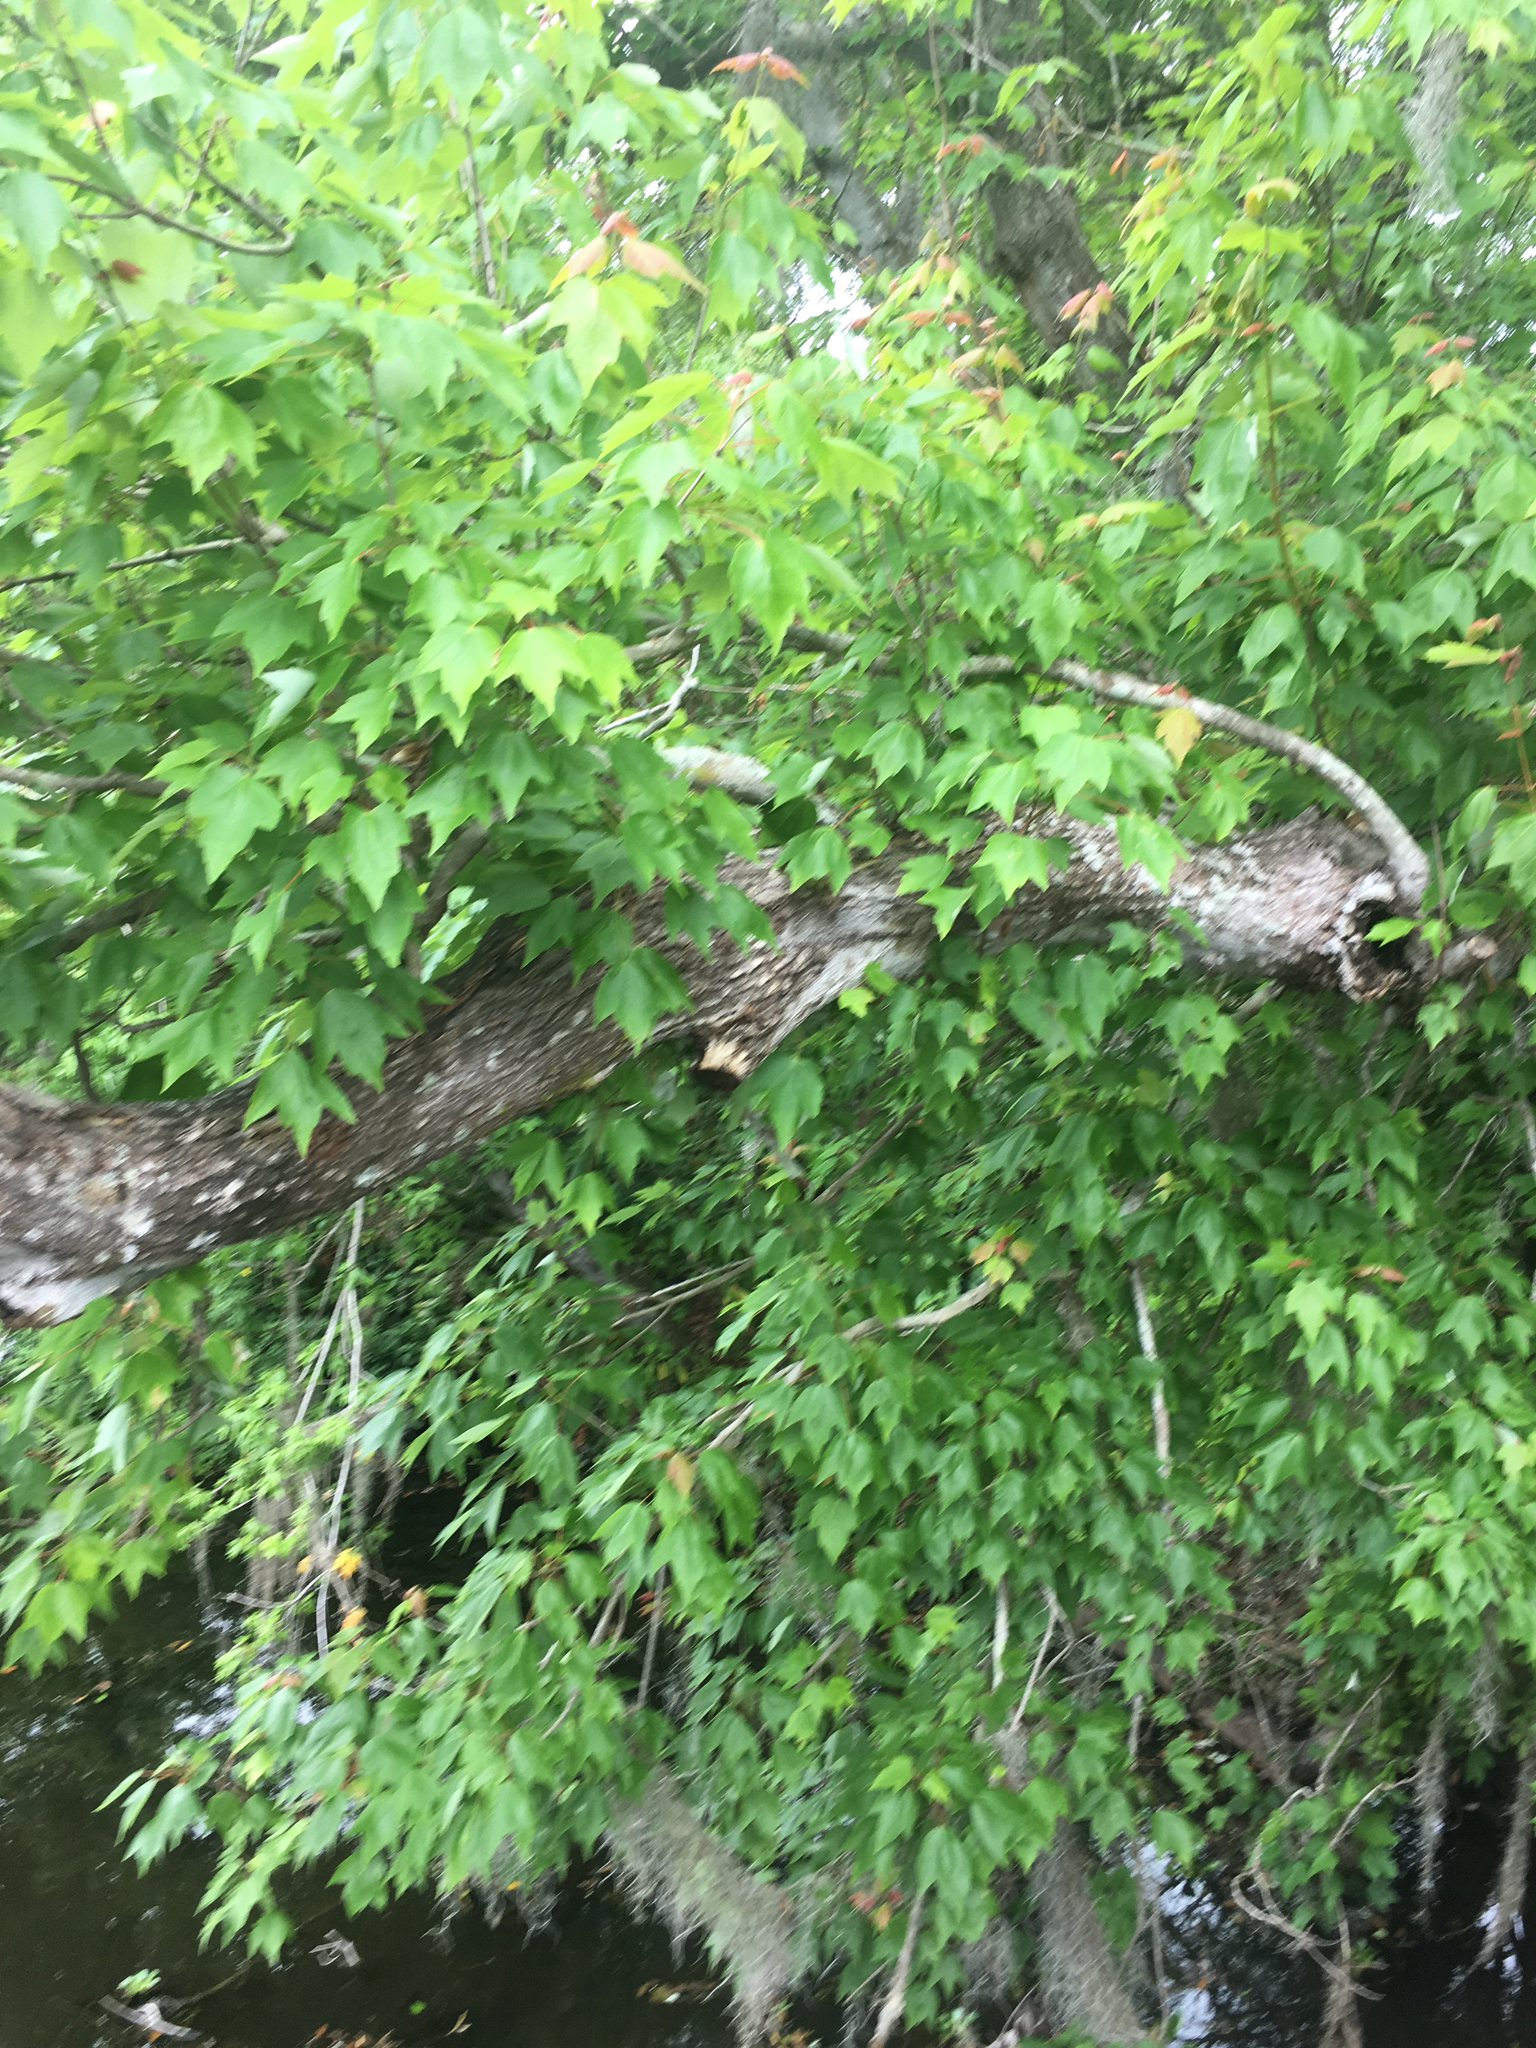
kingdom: Plantae
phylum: Tracheophyta
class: Magnoliopsida
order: Sapindales
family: Sapindaceae
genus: Acer
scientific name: Acer rubrum
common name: Red maple
